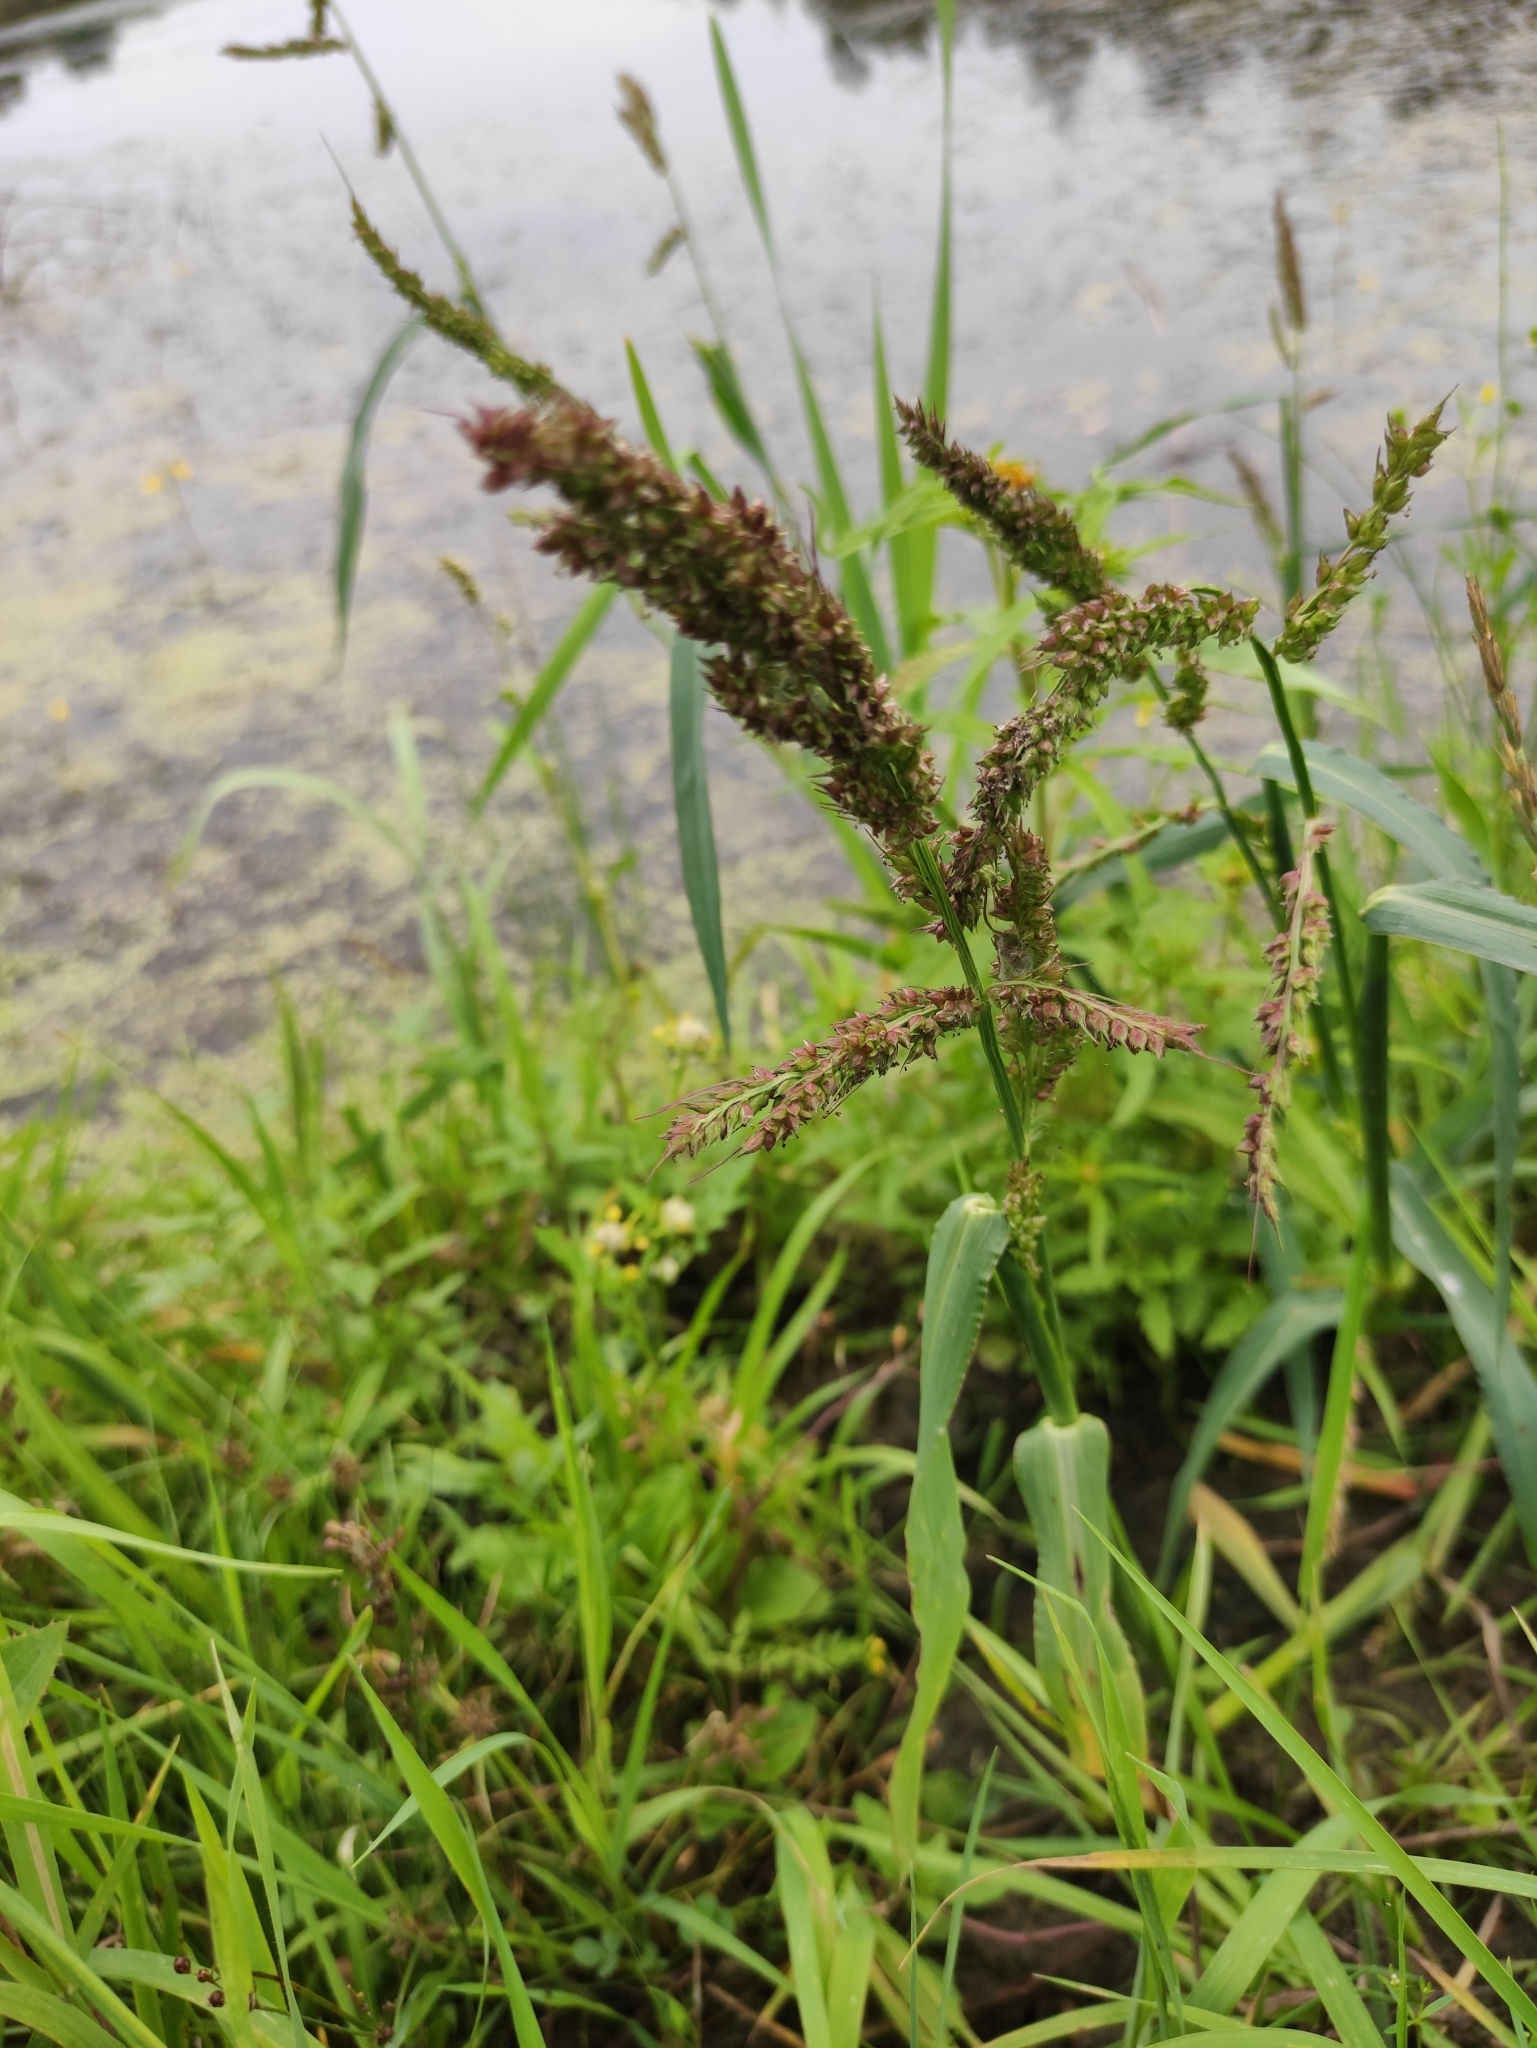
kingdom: Plantae
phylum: Tracheophyta
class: Liliopsida
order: Poales
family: Poaceae
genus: Echinochloa
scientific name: Echinochloa crus-galli
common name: Cockspur
